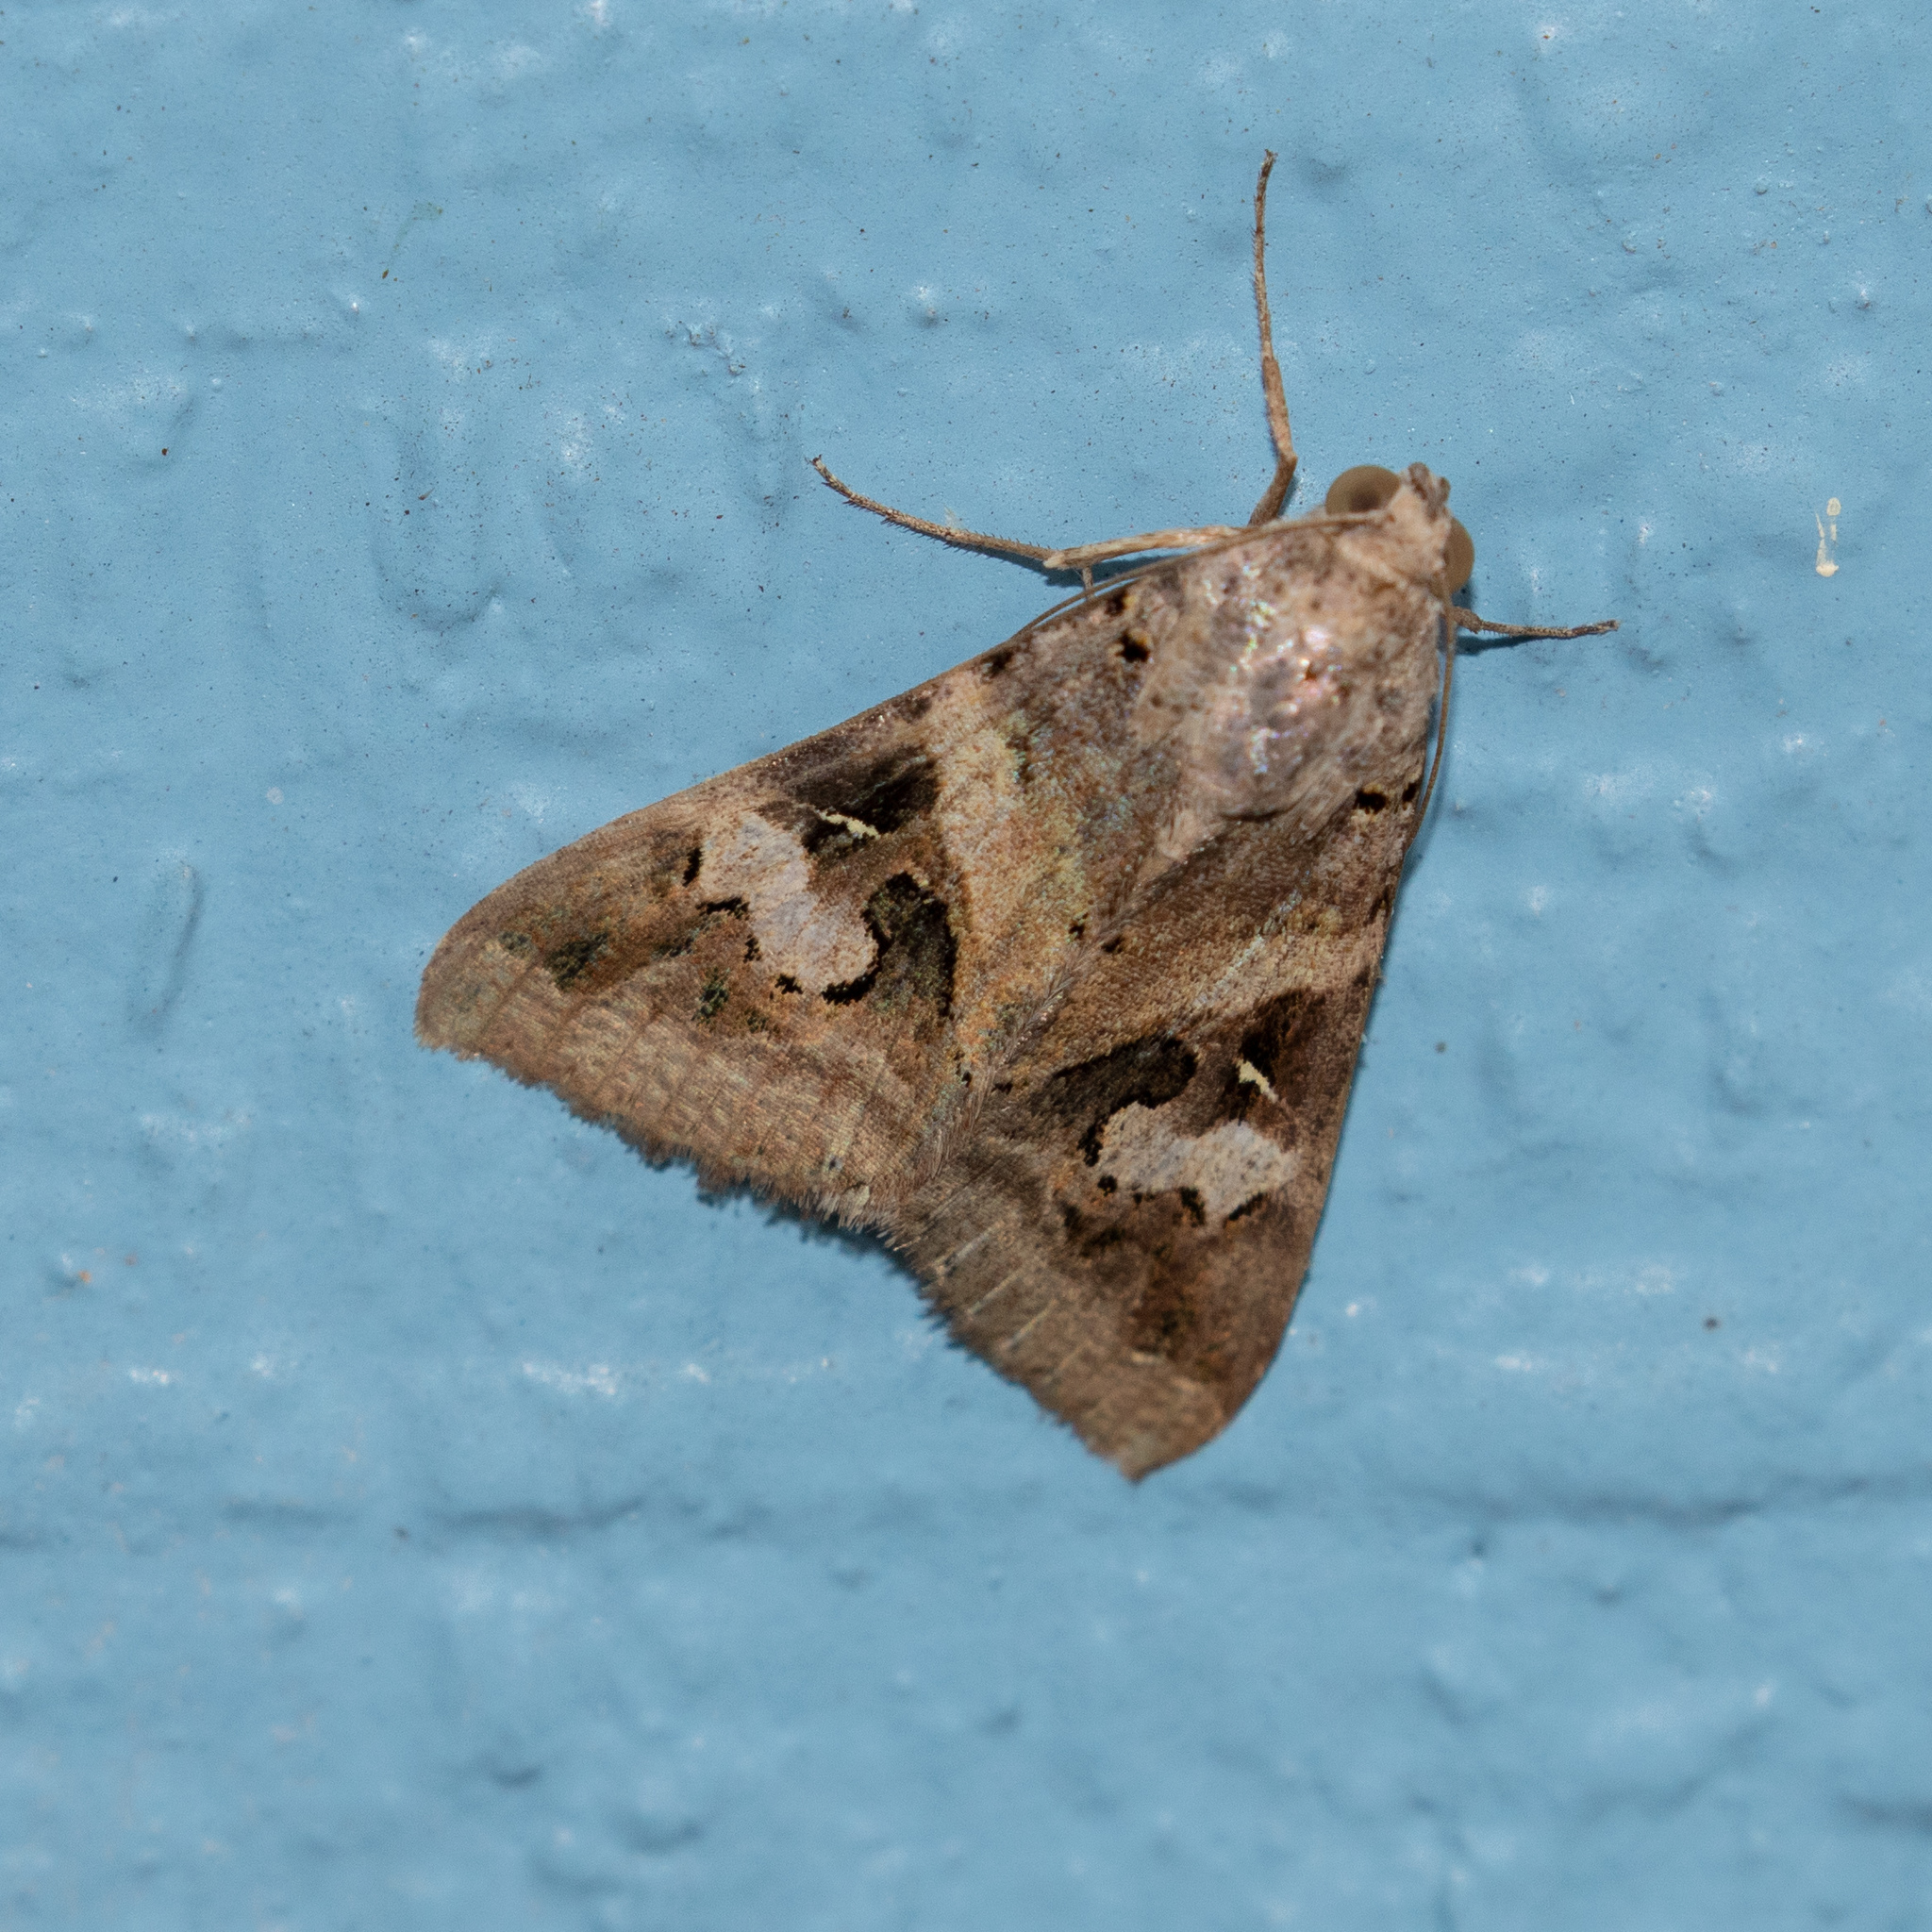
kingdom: Animalia
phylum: Arthropoda
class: Insecta
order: Lepidoptera
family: Erebidae
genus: Melipotis
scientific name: Melipotis indomita
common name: Moth
